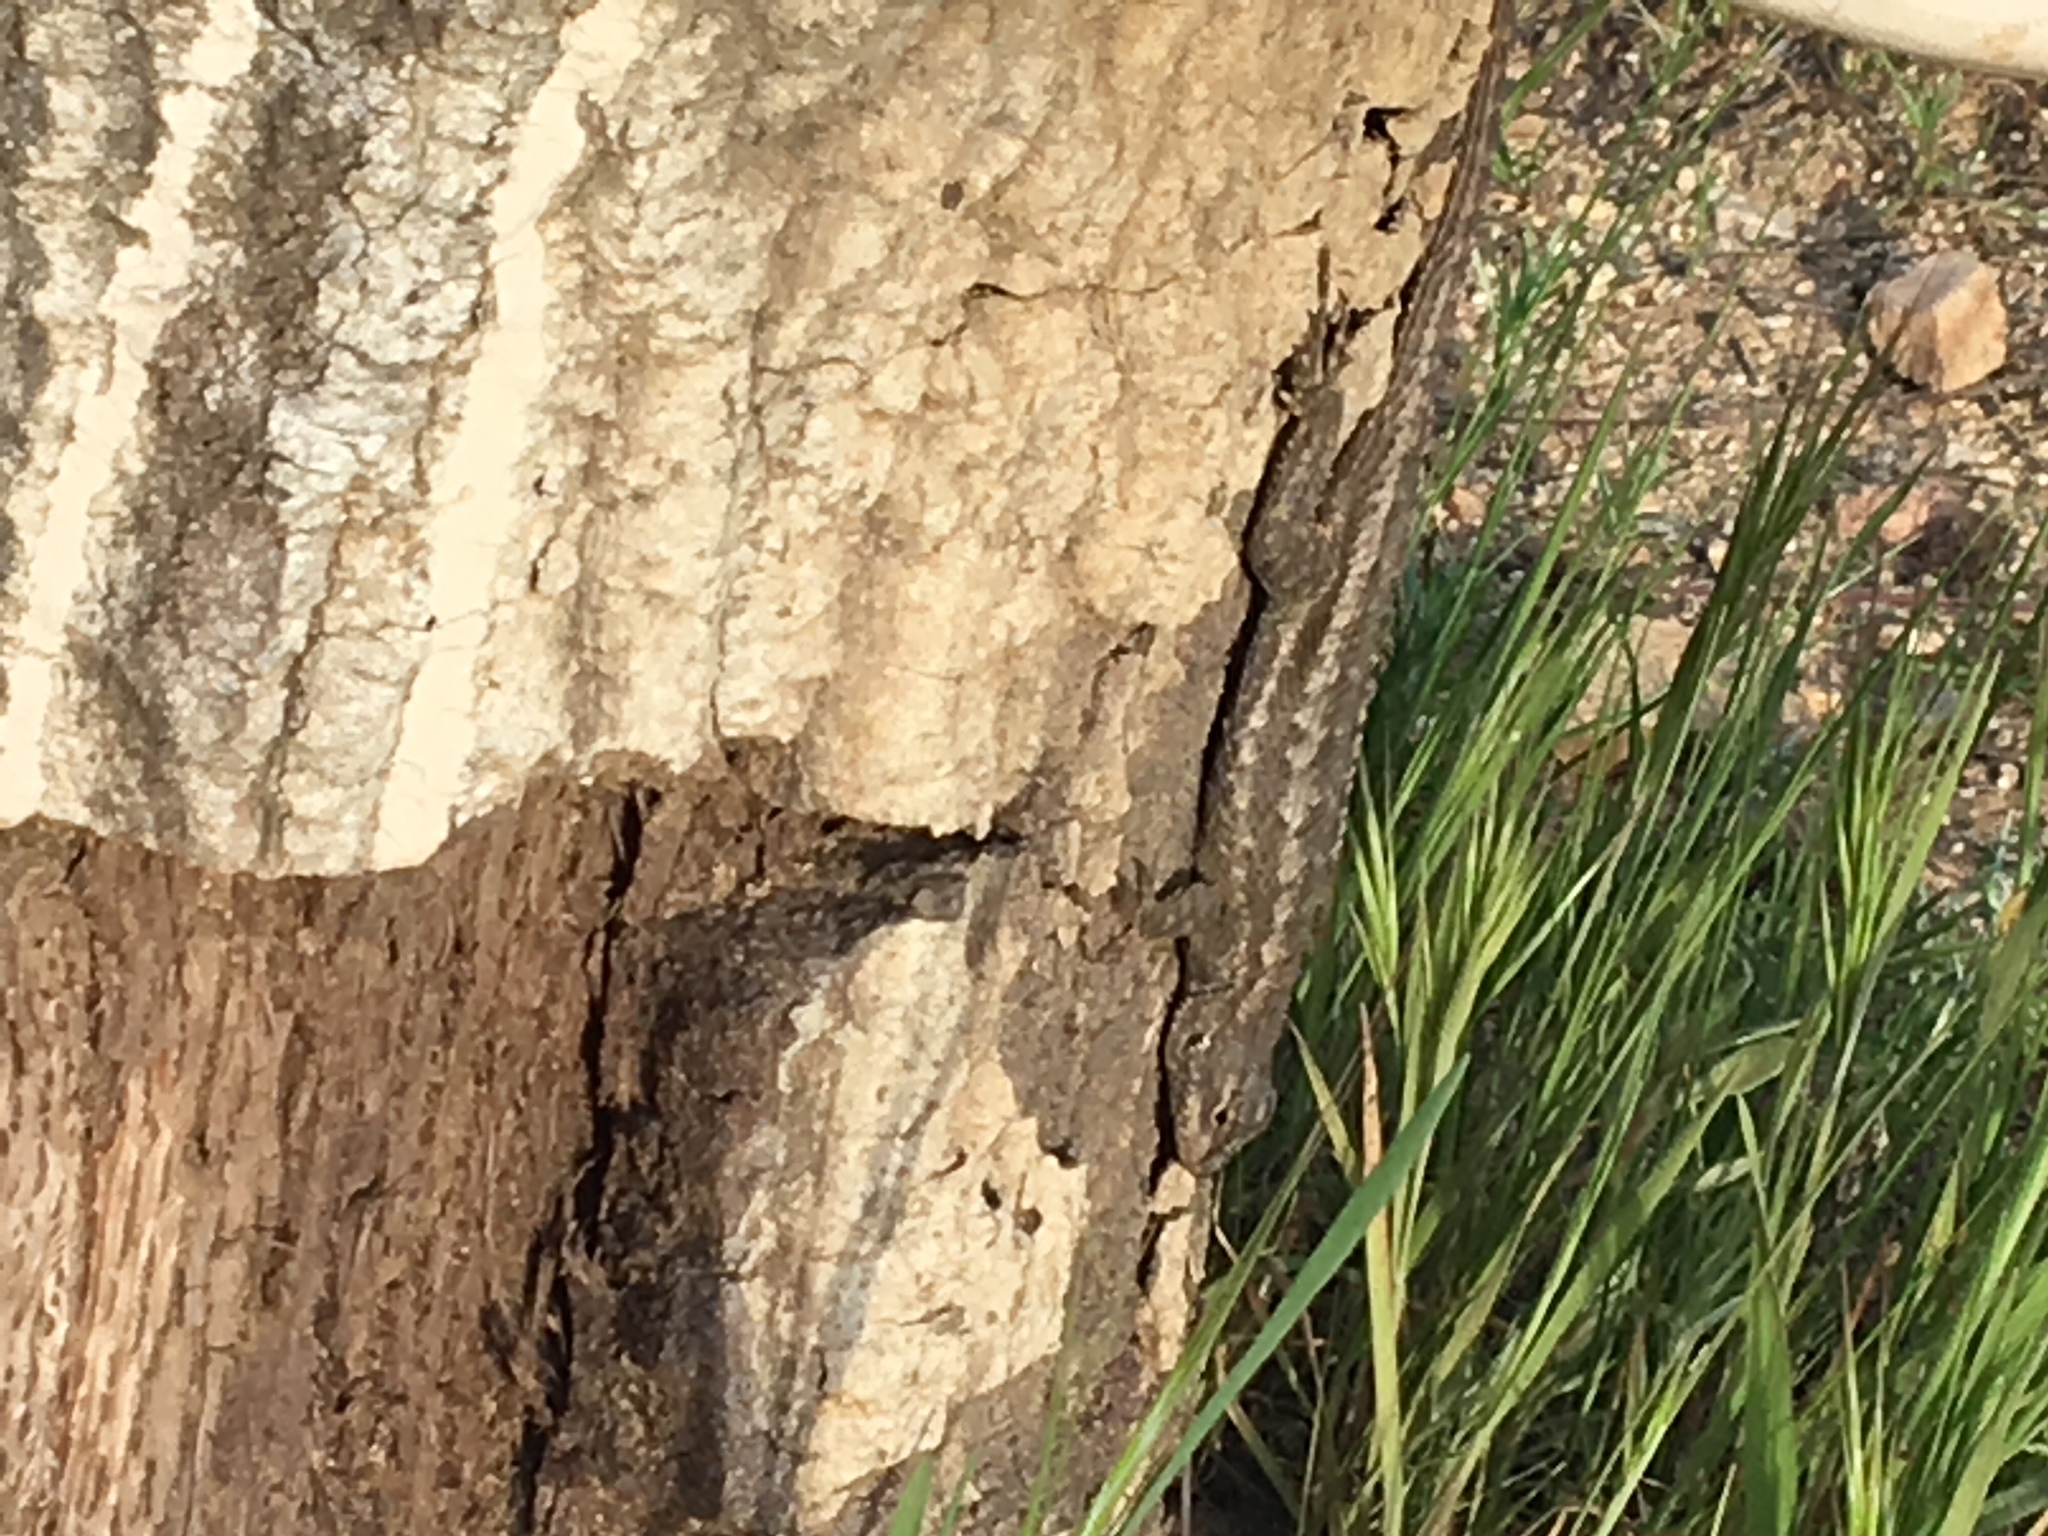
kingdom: Animalia
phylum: Chordata
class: Squamata
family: Phrynosomatidae
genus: Sceloporus
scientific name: Sceloporus occidentalis
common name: Western fence lizard
